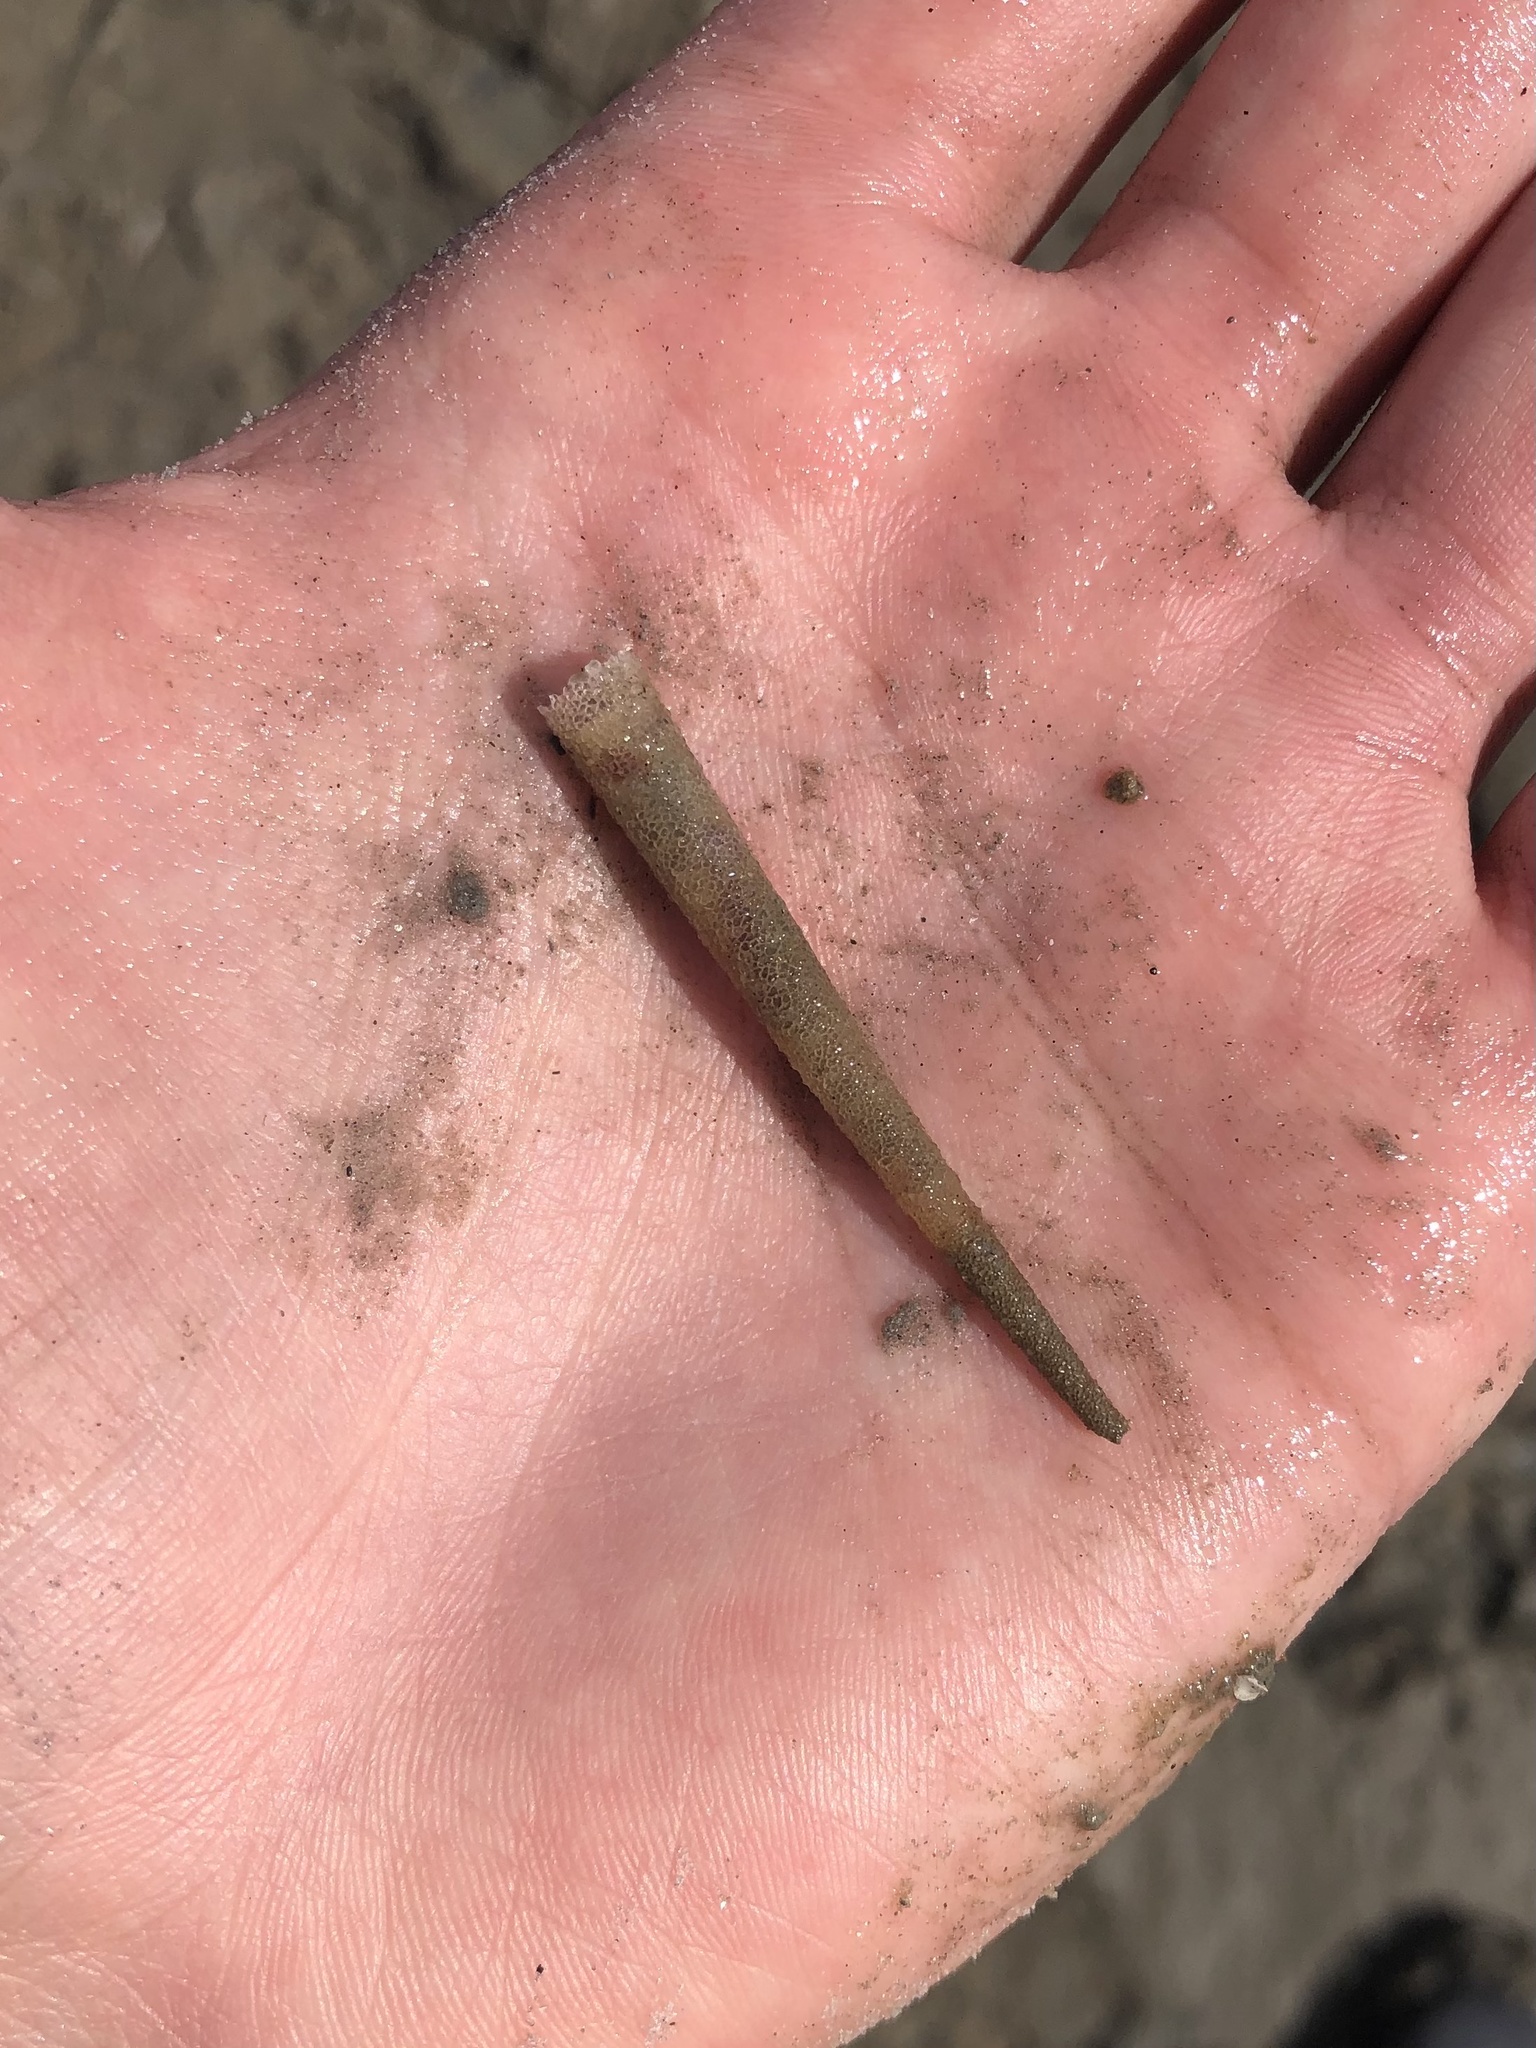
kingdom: Animalia
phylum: Annelida
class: Polychaeta
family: Pectinariidae
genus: Pectinaria
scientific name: Pectinaria gouldii
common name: Ice cream cone worm
